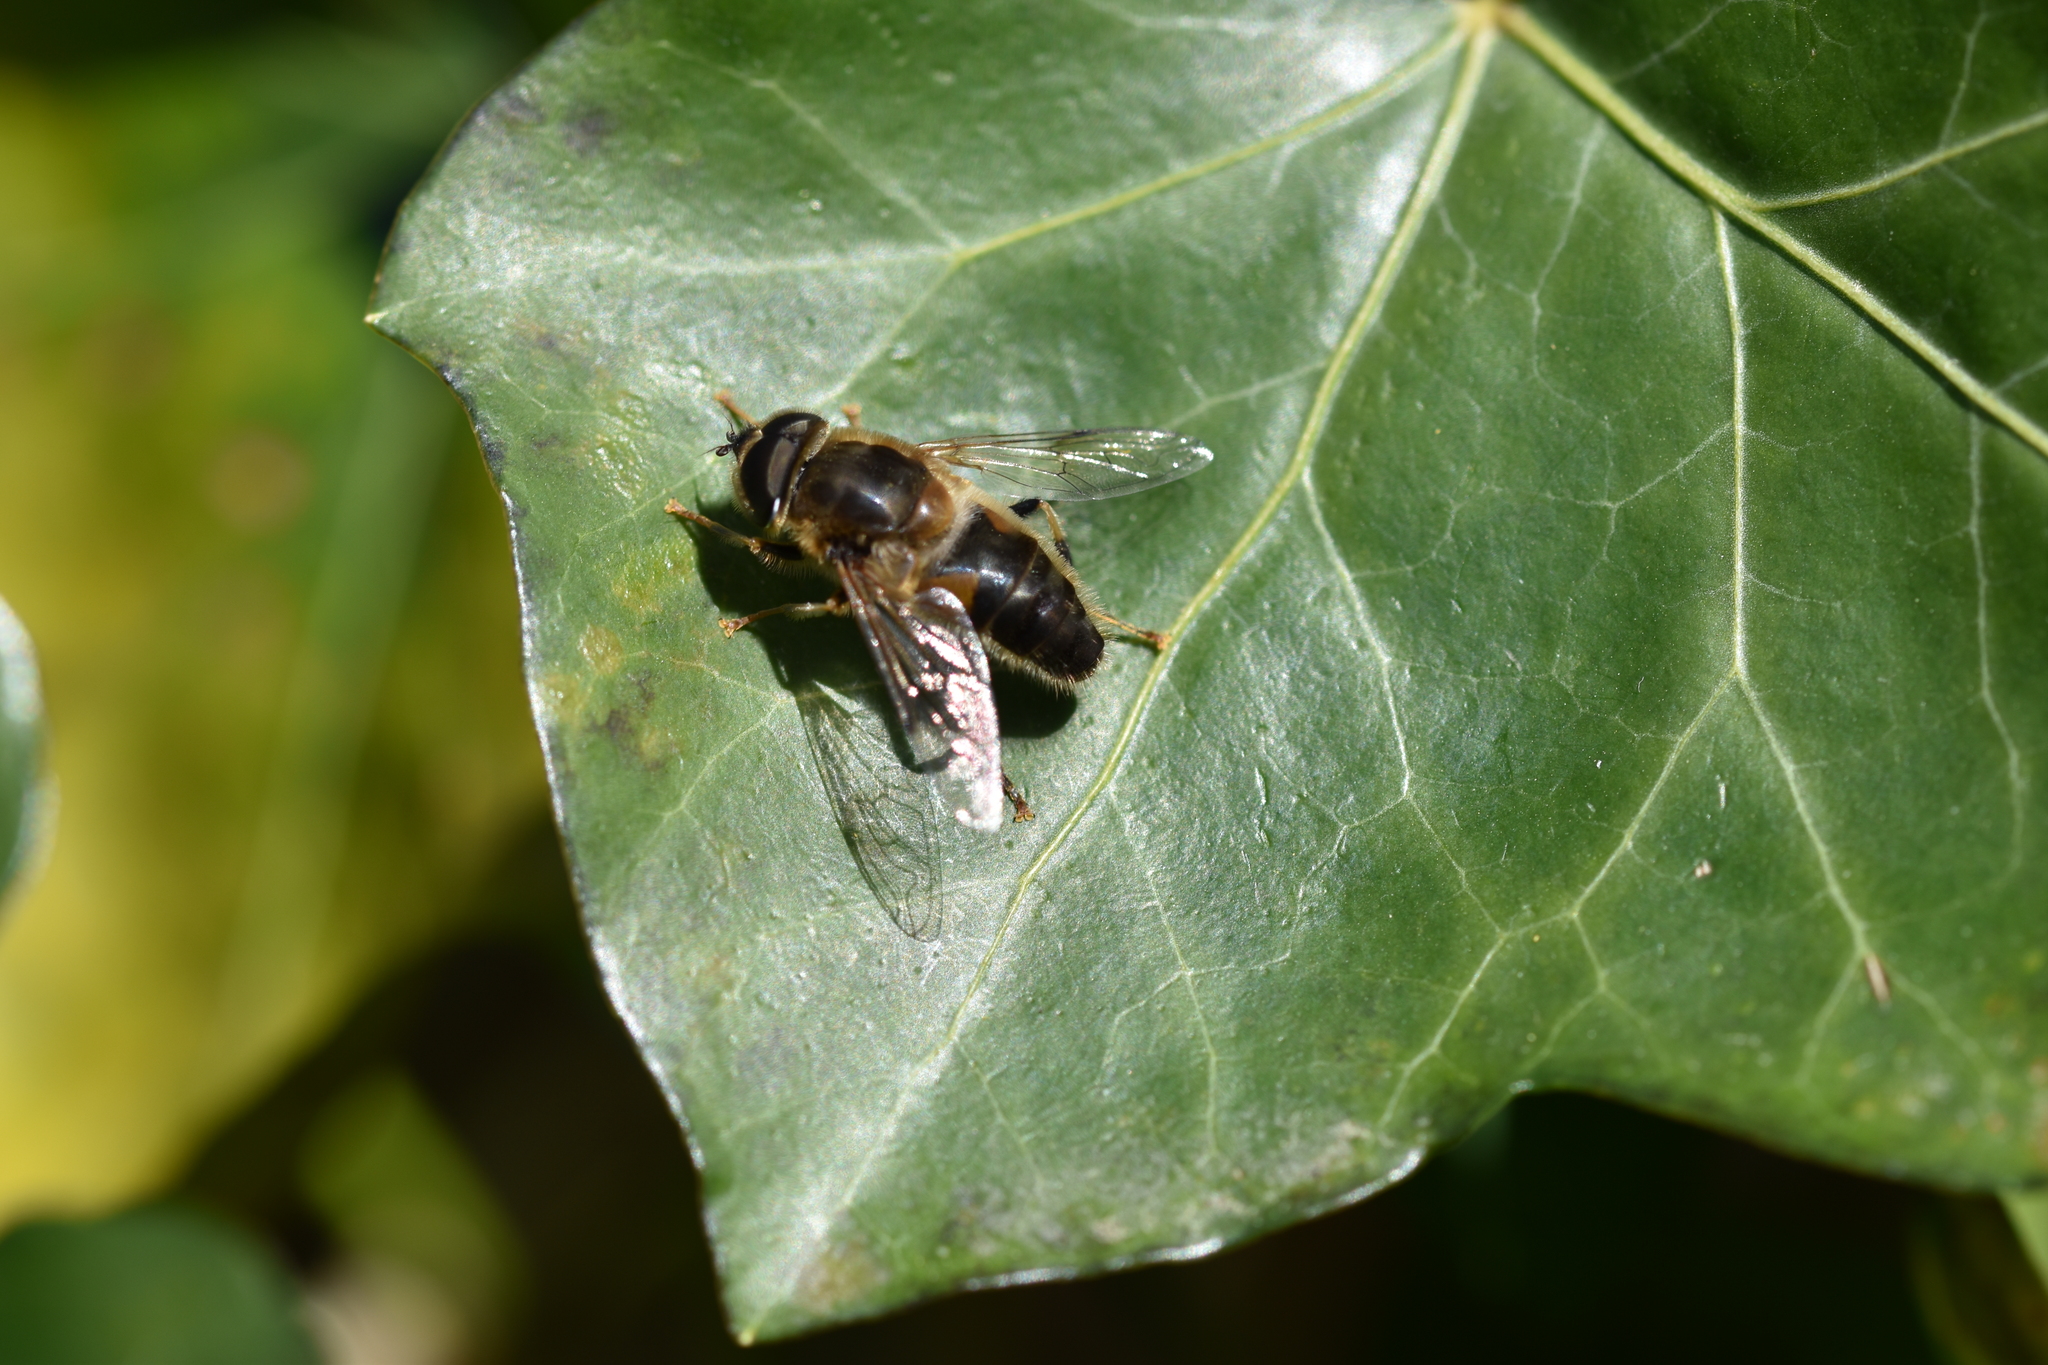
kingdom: Animalia
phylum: Arthropoda
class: Insecta
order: Diptera
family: Syrphidae
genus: Eristalis
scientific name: Eristalis pertinax
